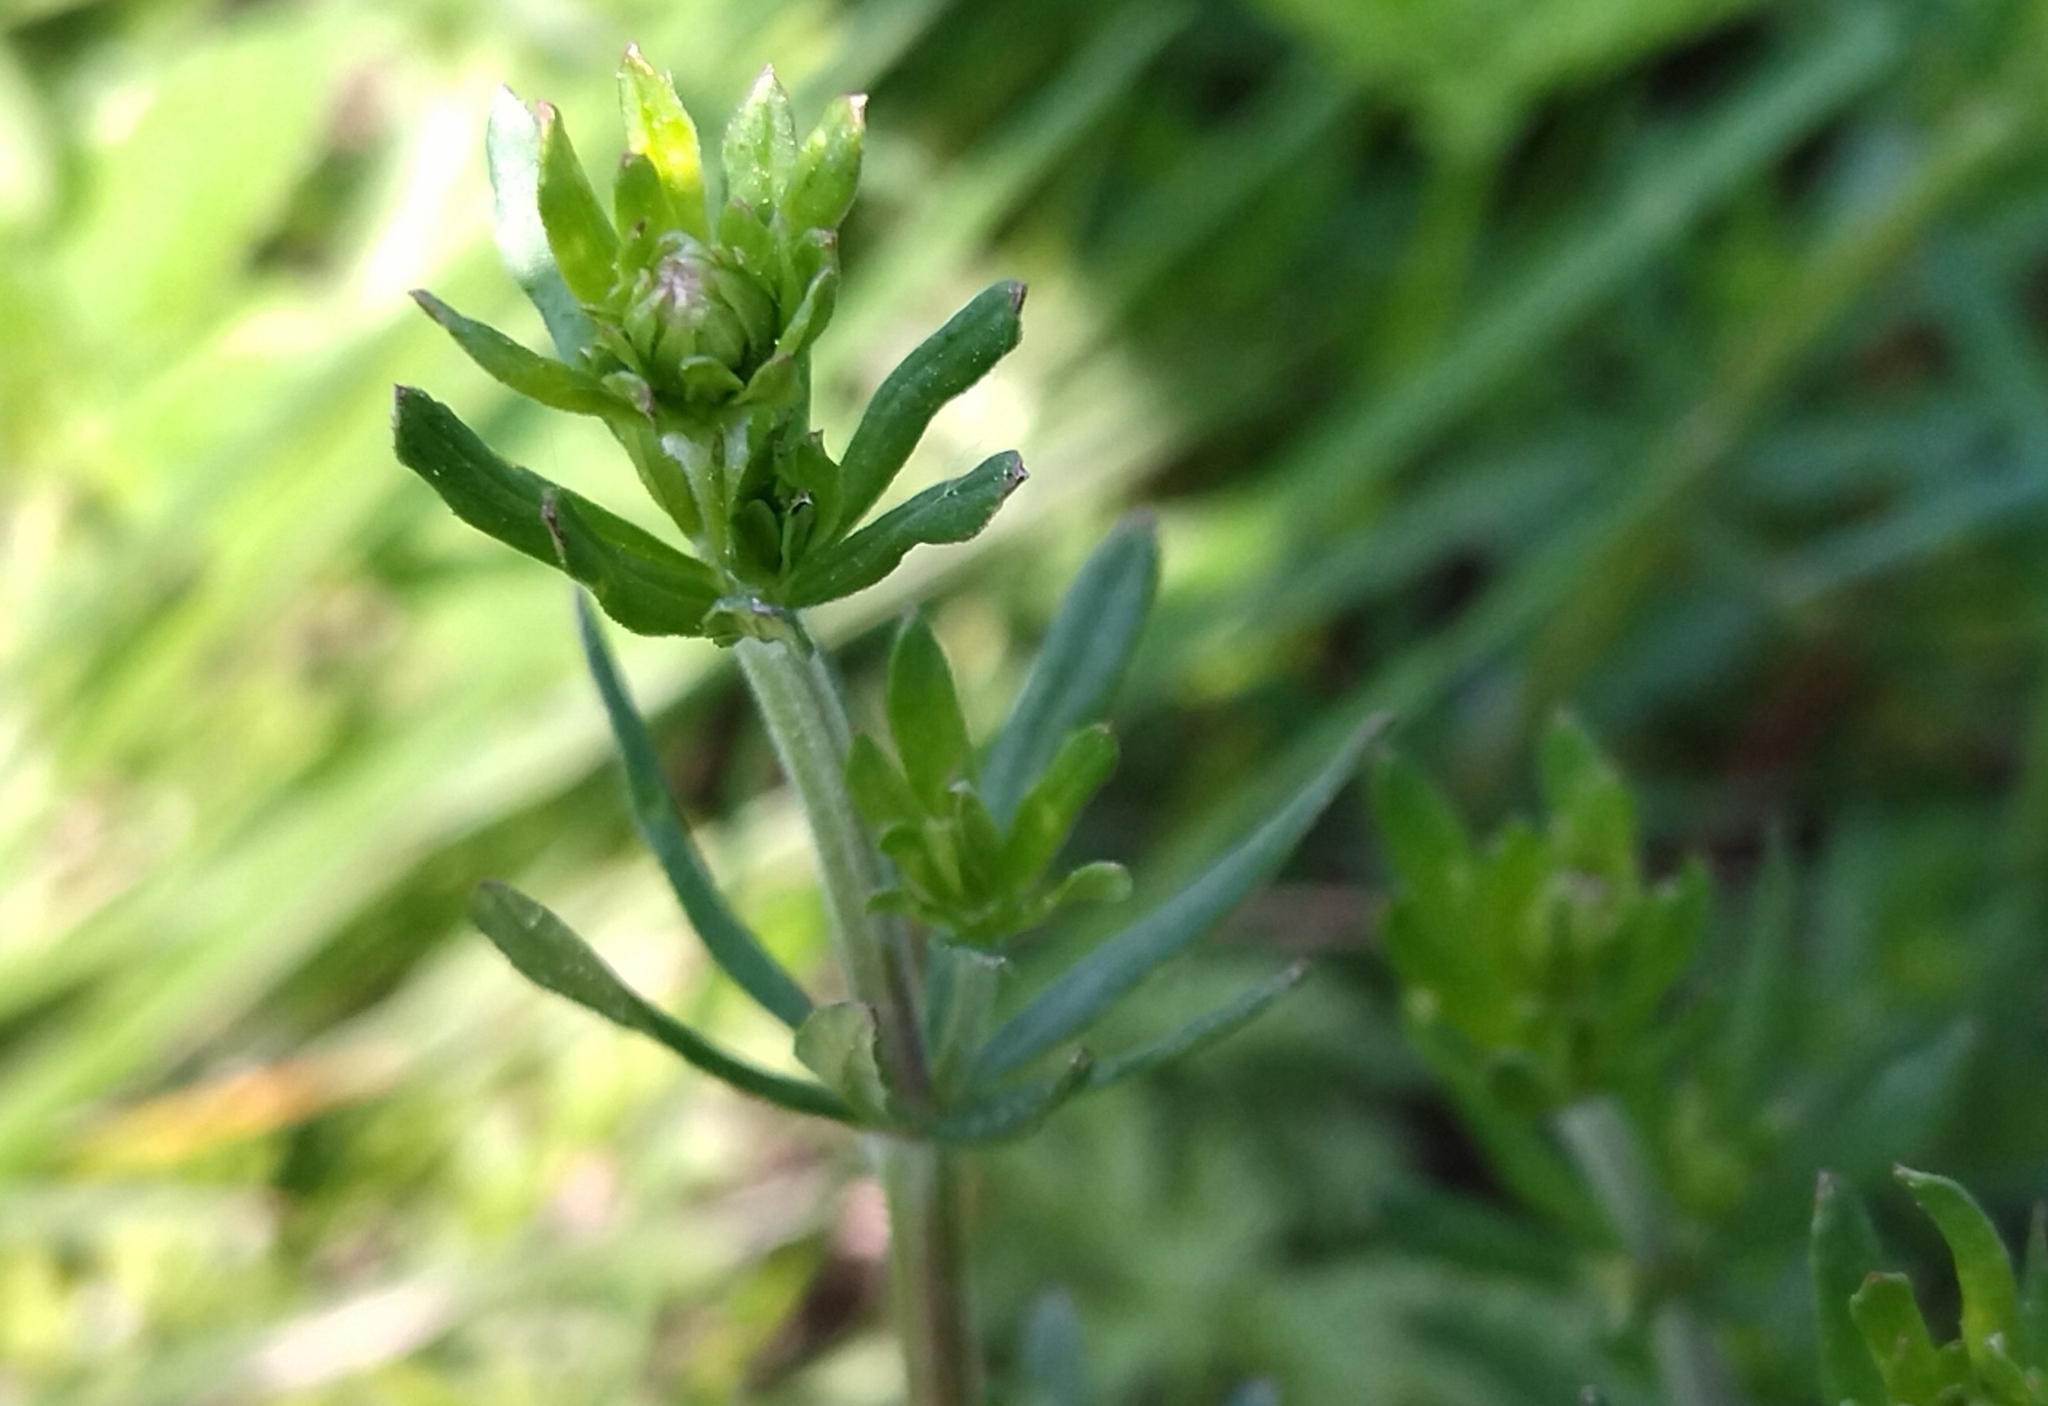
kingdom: Plantae
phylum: Tracheophyta
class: Magnoliopsida
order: Gentianales
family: Rubiaceae
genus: Galium
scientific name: Galium mollugo
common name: Hedge bedstraw
